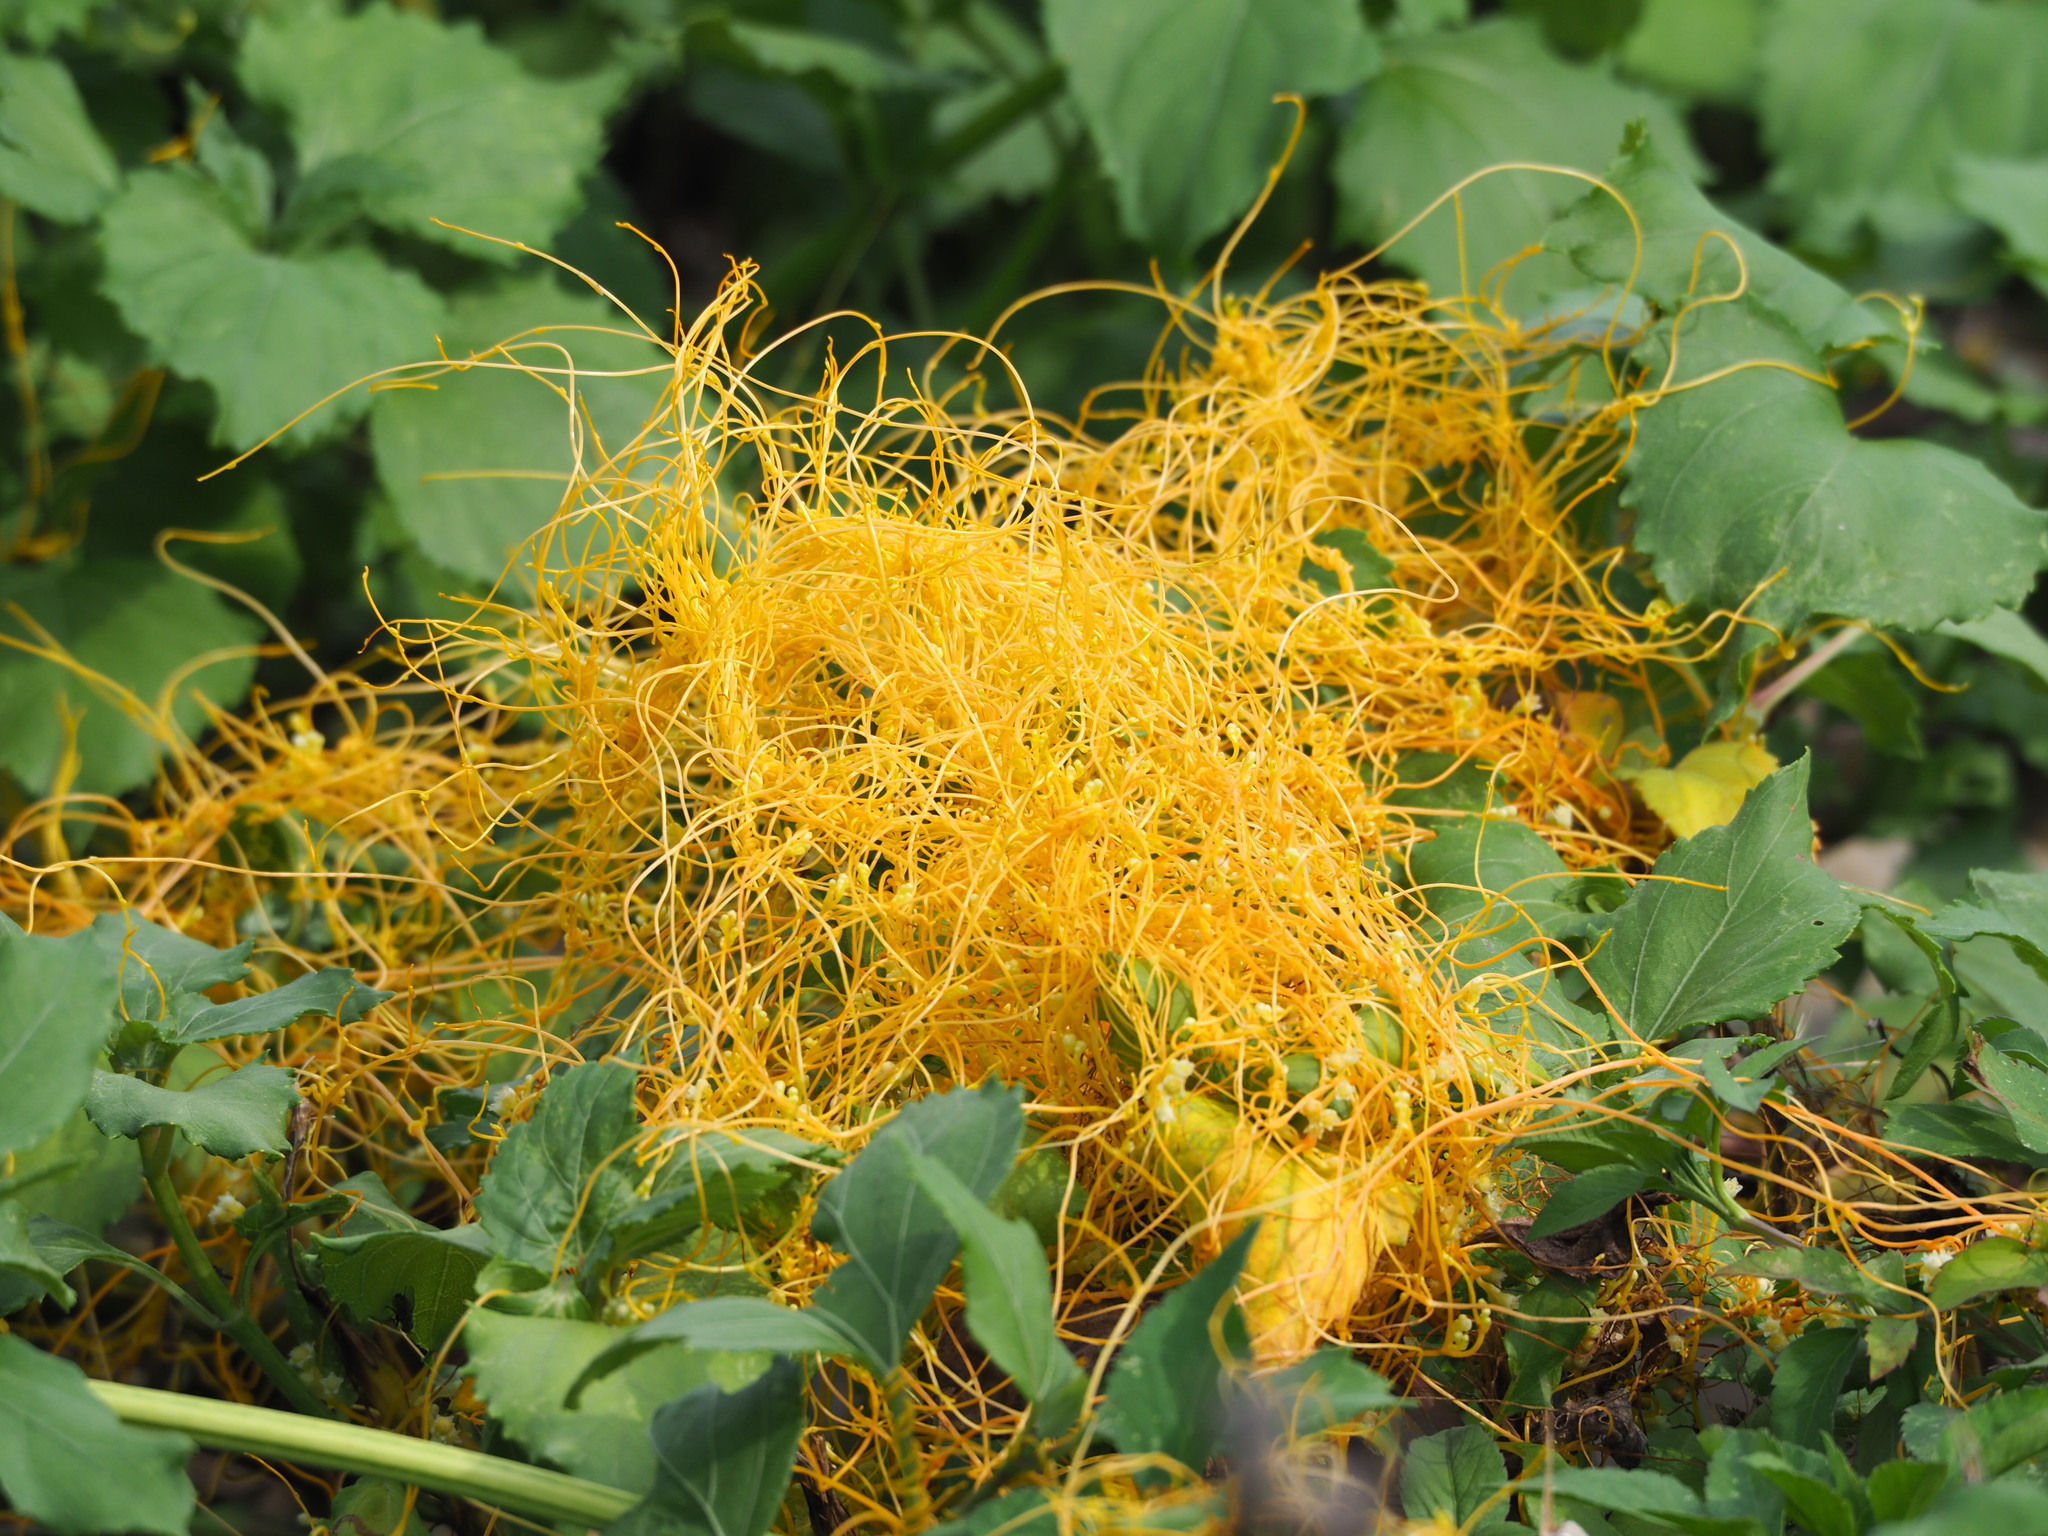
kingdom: Plantae
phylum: Tracheophyta
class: Magnoliopsida
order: Solanales
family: Convolvulaceae
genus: Cuscuta
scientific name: Cuscuta campestris
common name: Yellow dodder
